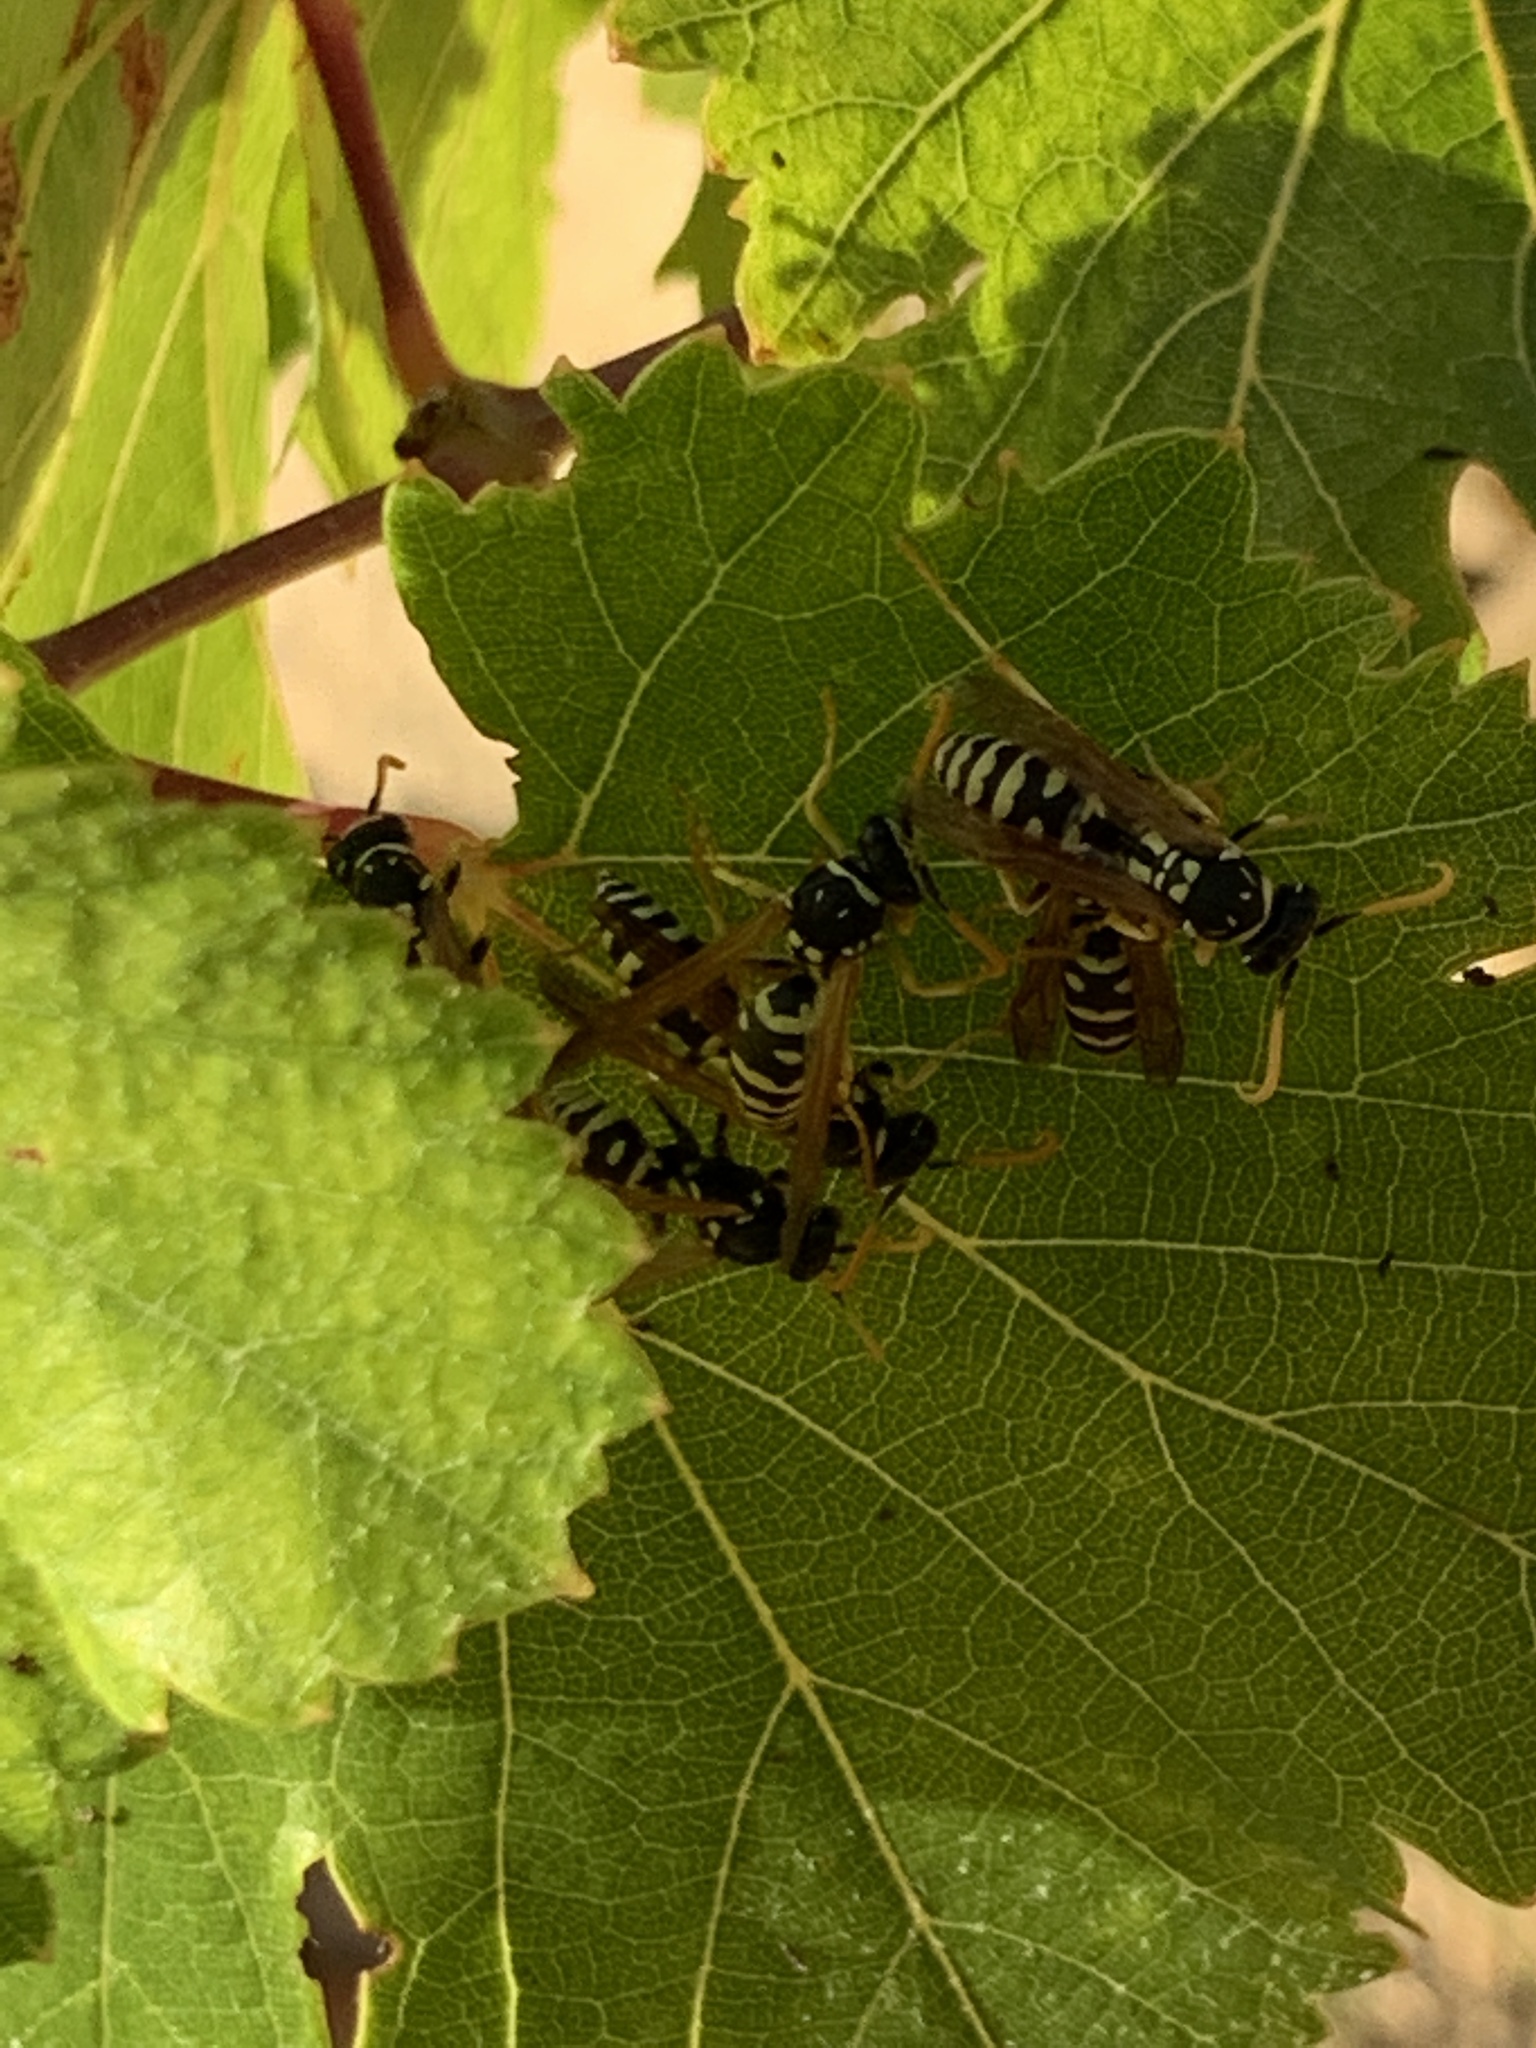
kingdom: Animalia
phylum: Arthropoda
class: Insecta
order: Hymenoptera
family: Eumenidae
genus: Polistes
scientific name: Polistes gallicus
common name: Paper wasp
